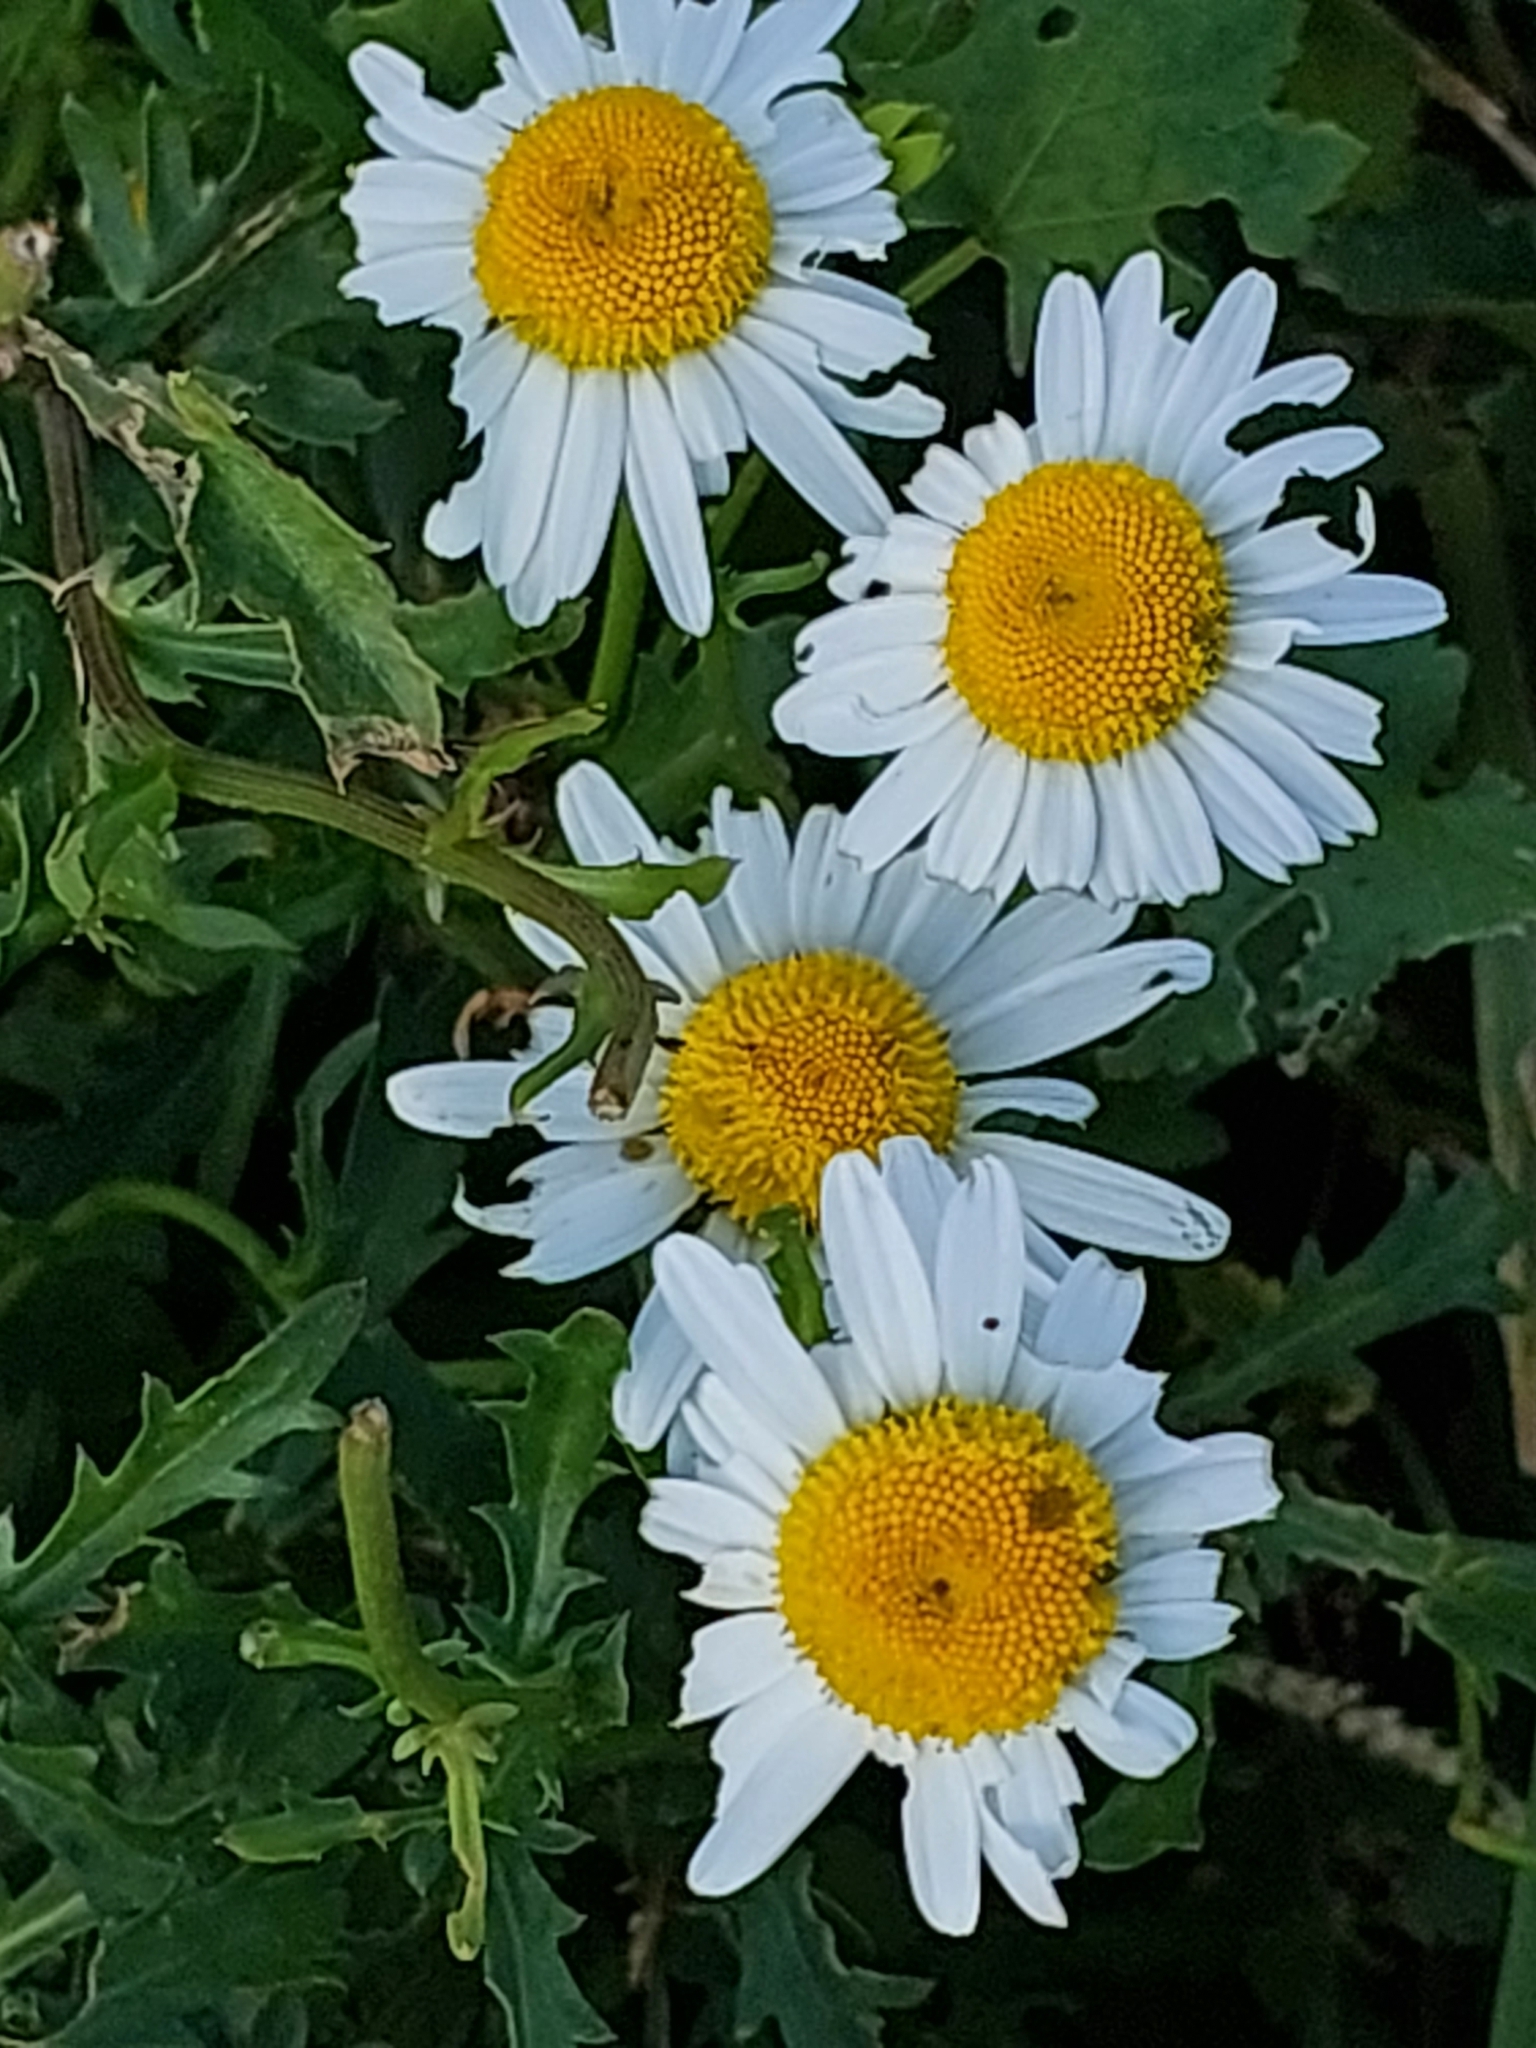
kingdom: Plantae
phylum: Tracheophyta
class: Magnoliopsida
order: Asterales
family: Asteraceae
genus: Leucanthemum
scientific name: Leucanthemum vulgare
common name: Oxeye daisy
